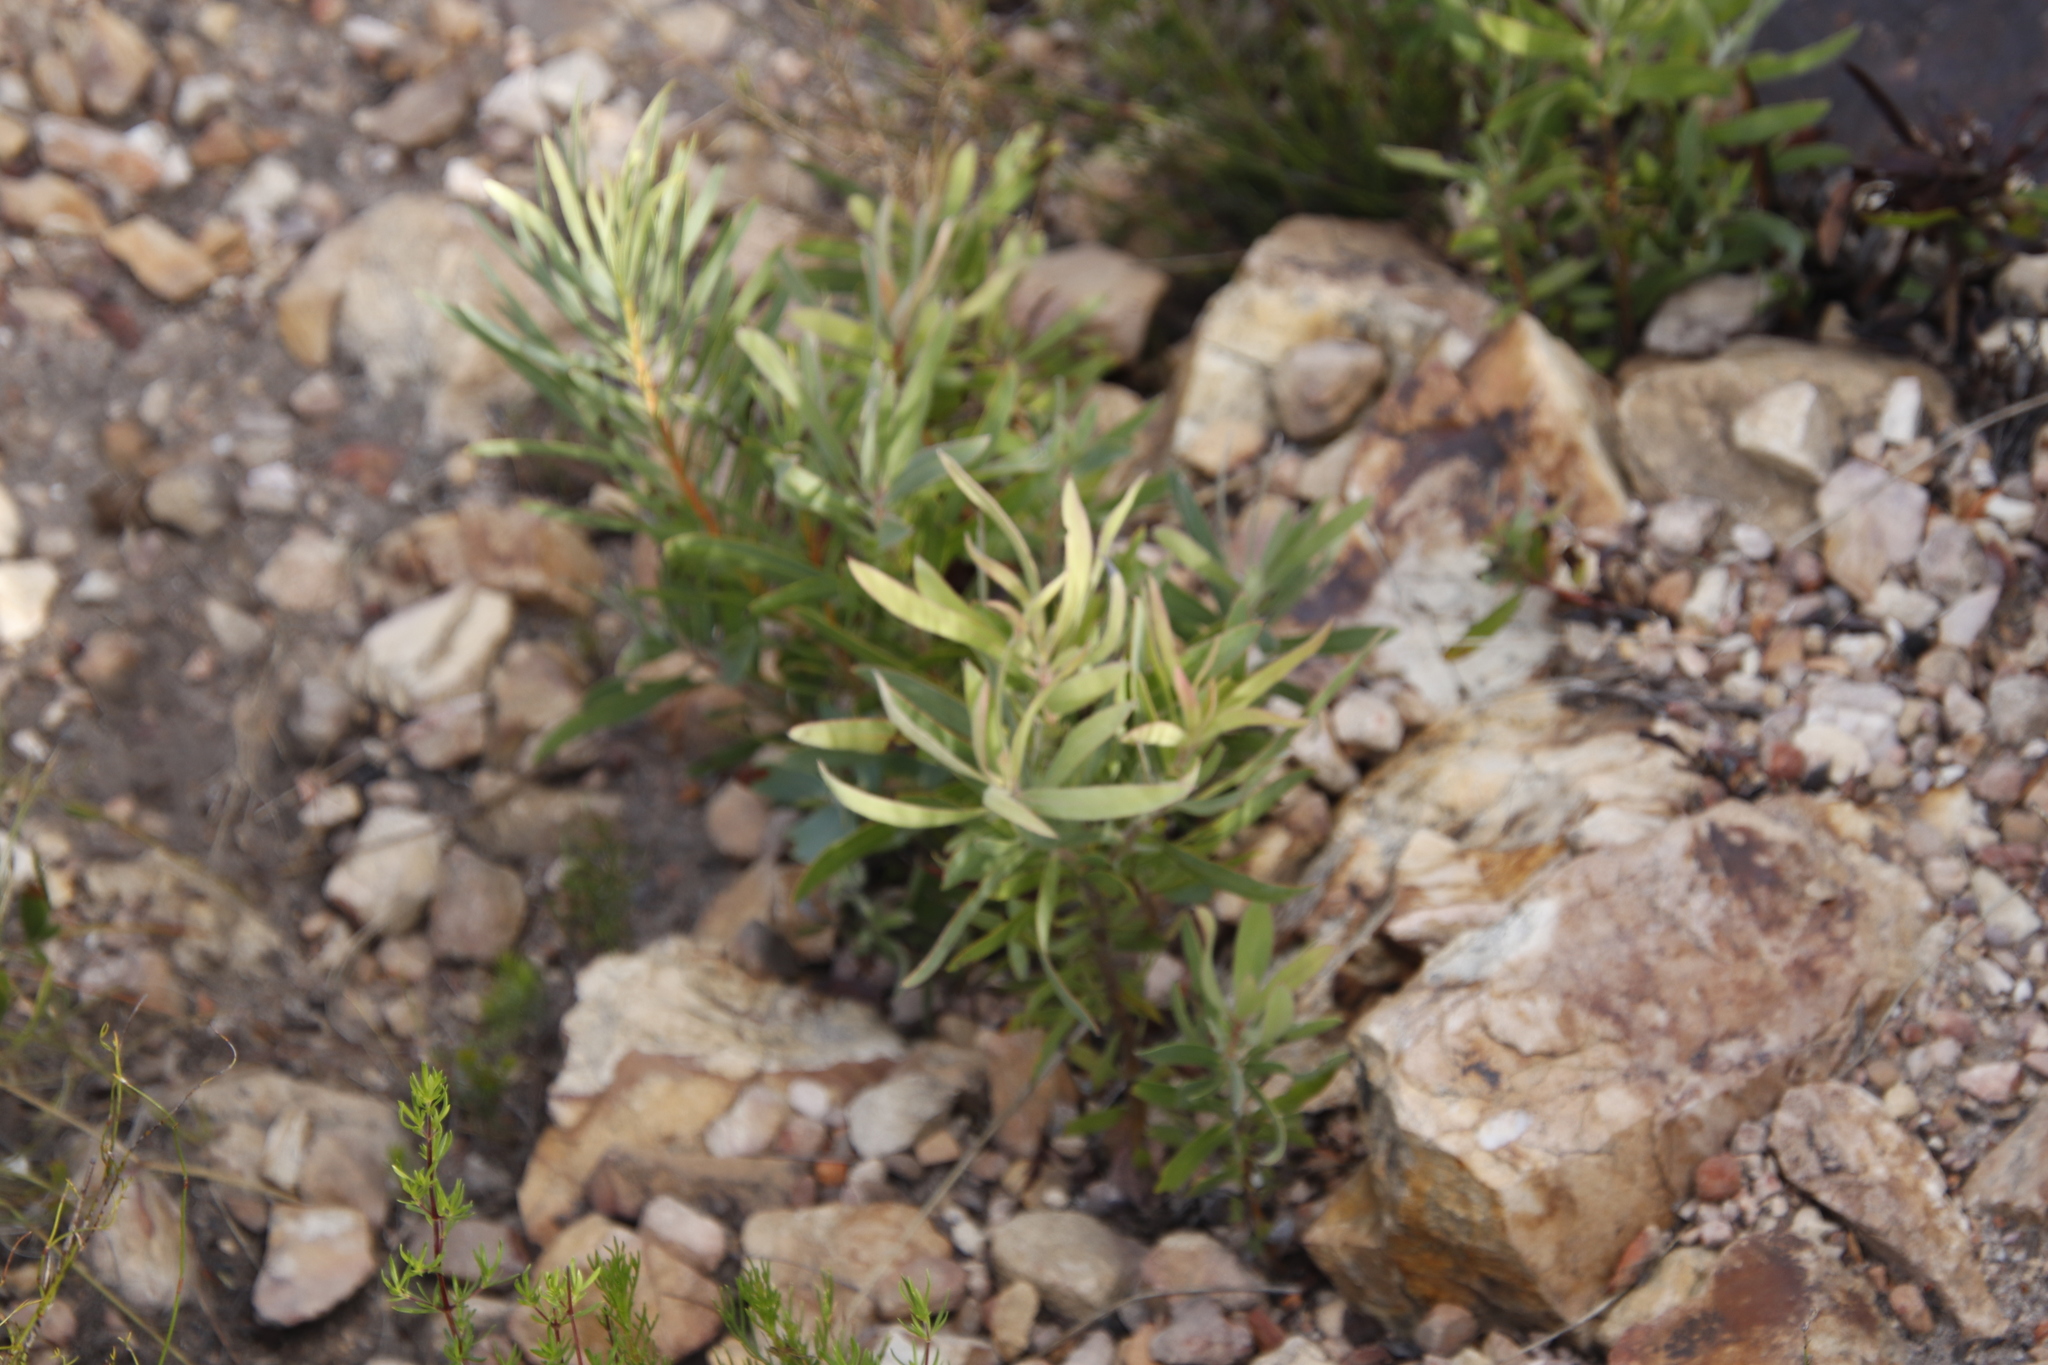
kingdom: Plantae
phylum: Tracheophyta
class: Magnoliopsida
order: Proteales
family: Proteaceae
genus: Protea
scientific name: Protea repens
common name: Sugarbush
